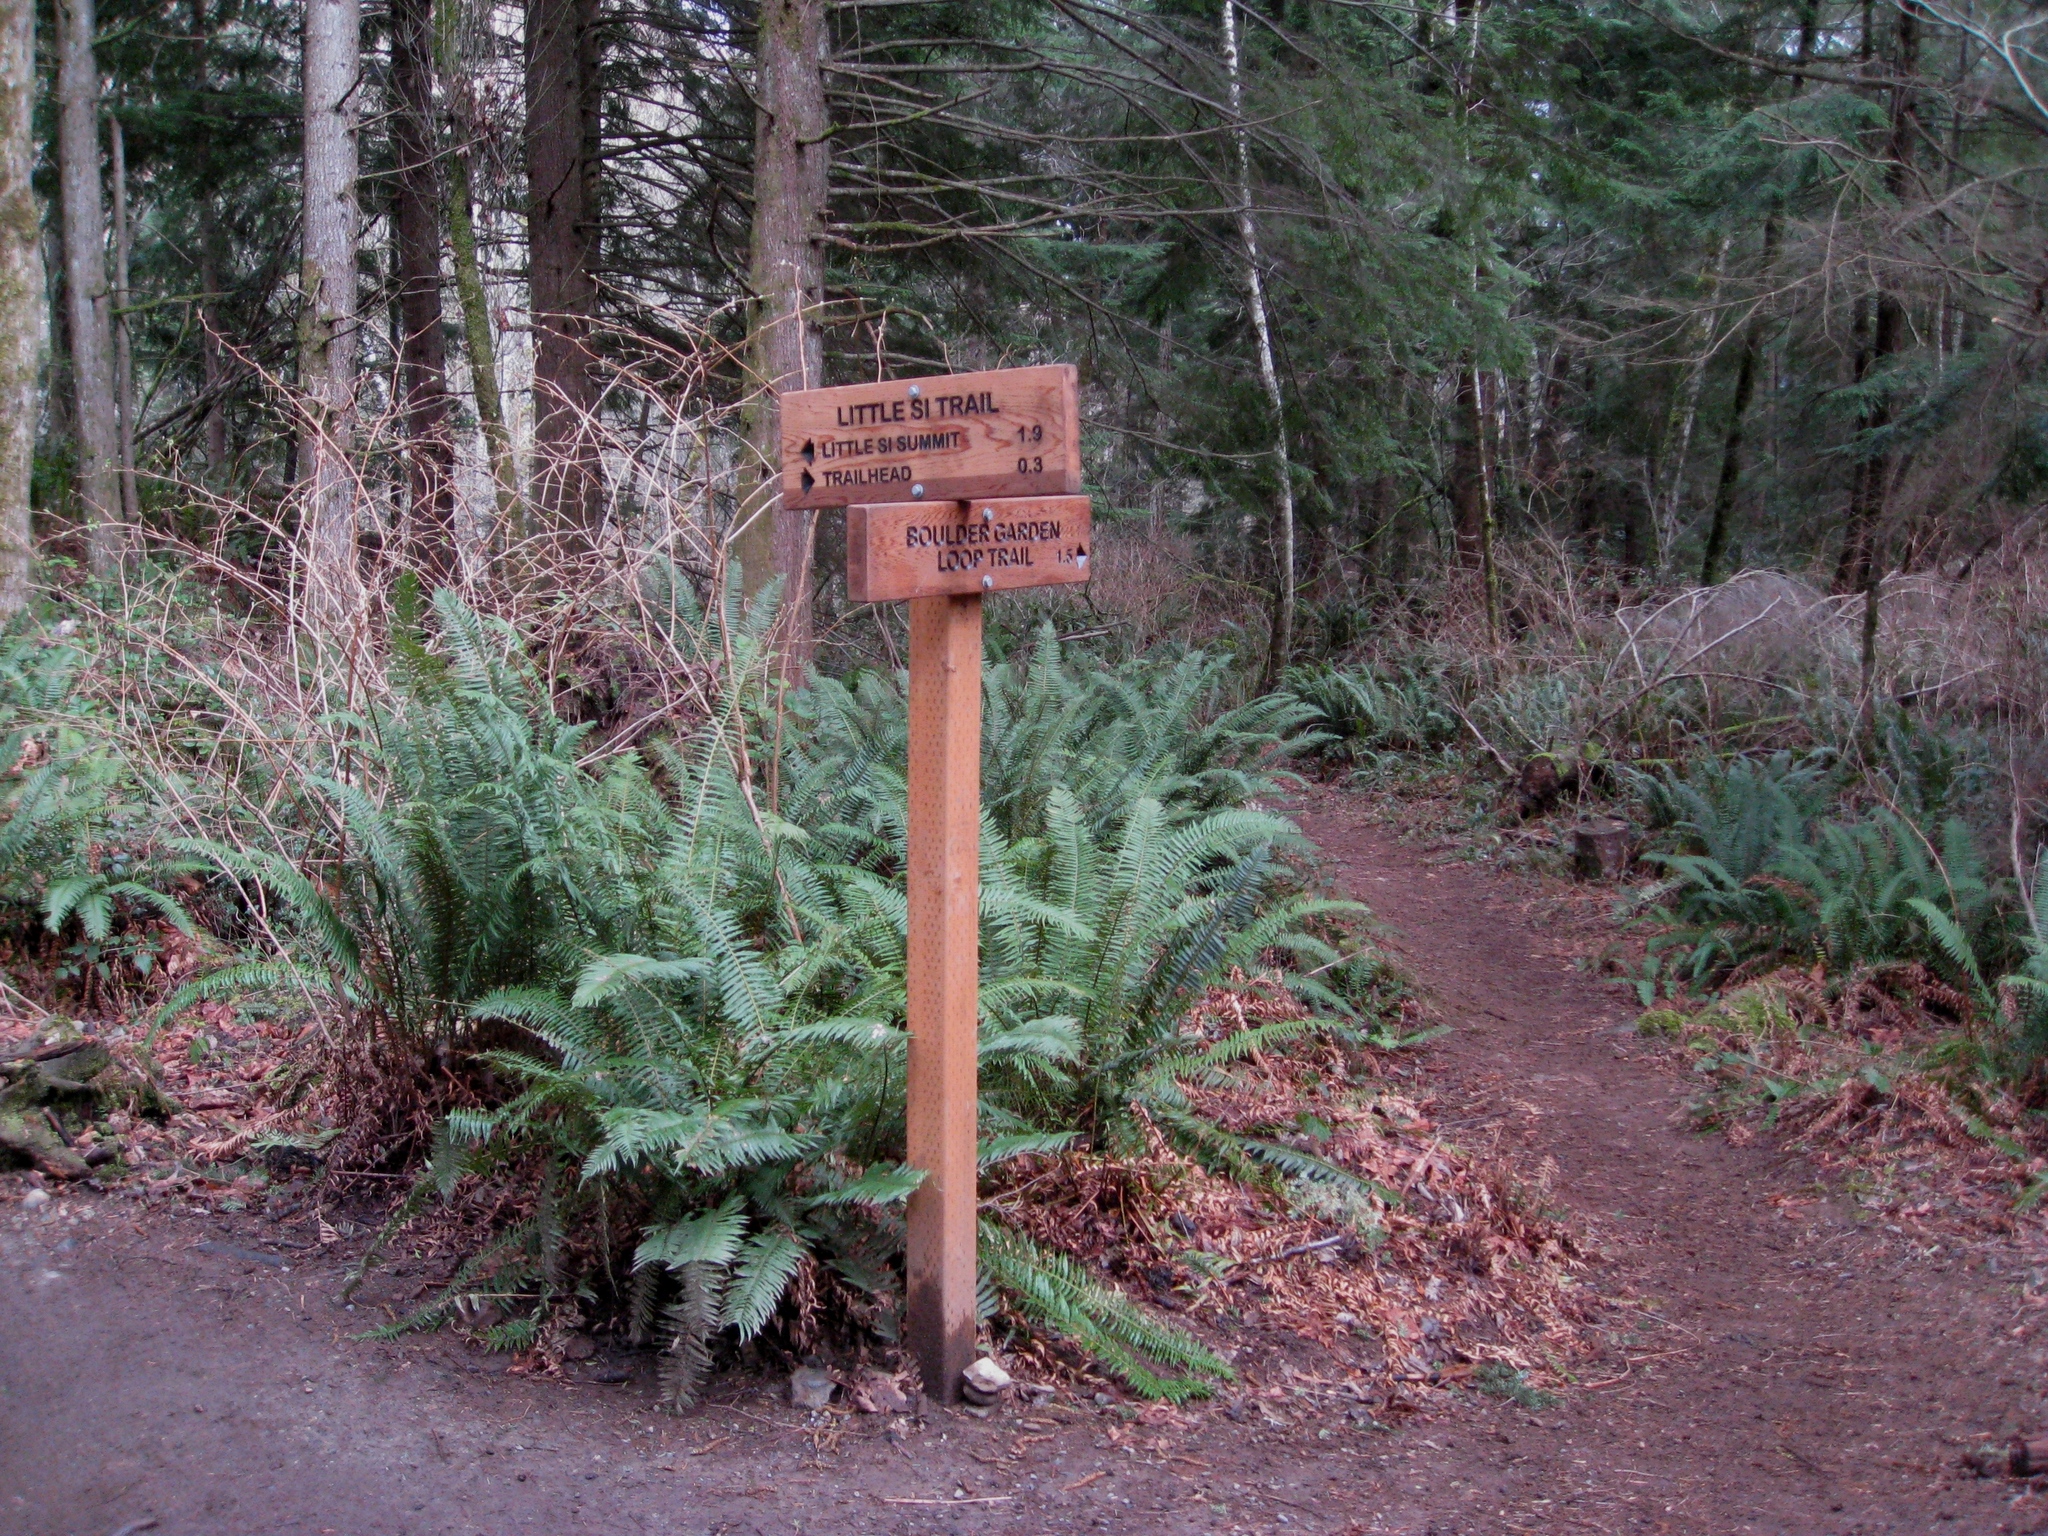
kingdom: Plantae
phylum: Tracheophyta
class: Polypodiopsida
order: Polypodiales
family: Dryopteridaceae
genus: Polystichum
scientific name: Polystichum munitum
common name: Western sword-fern
